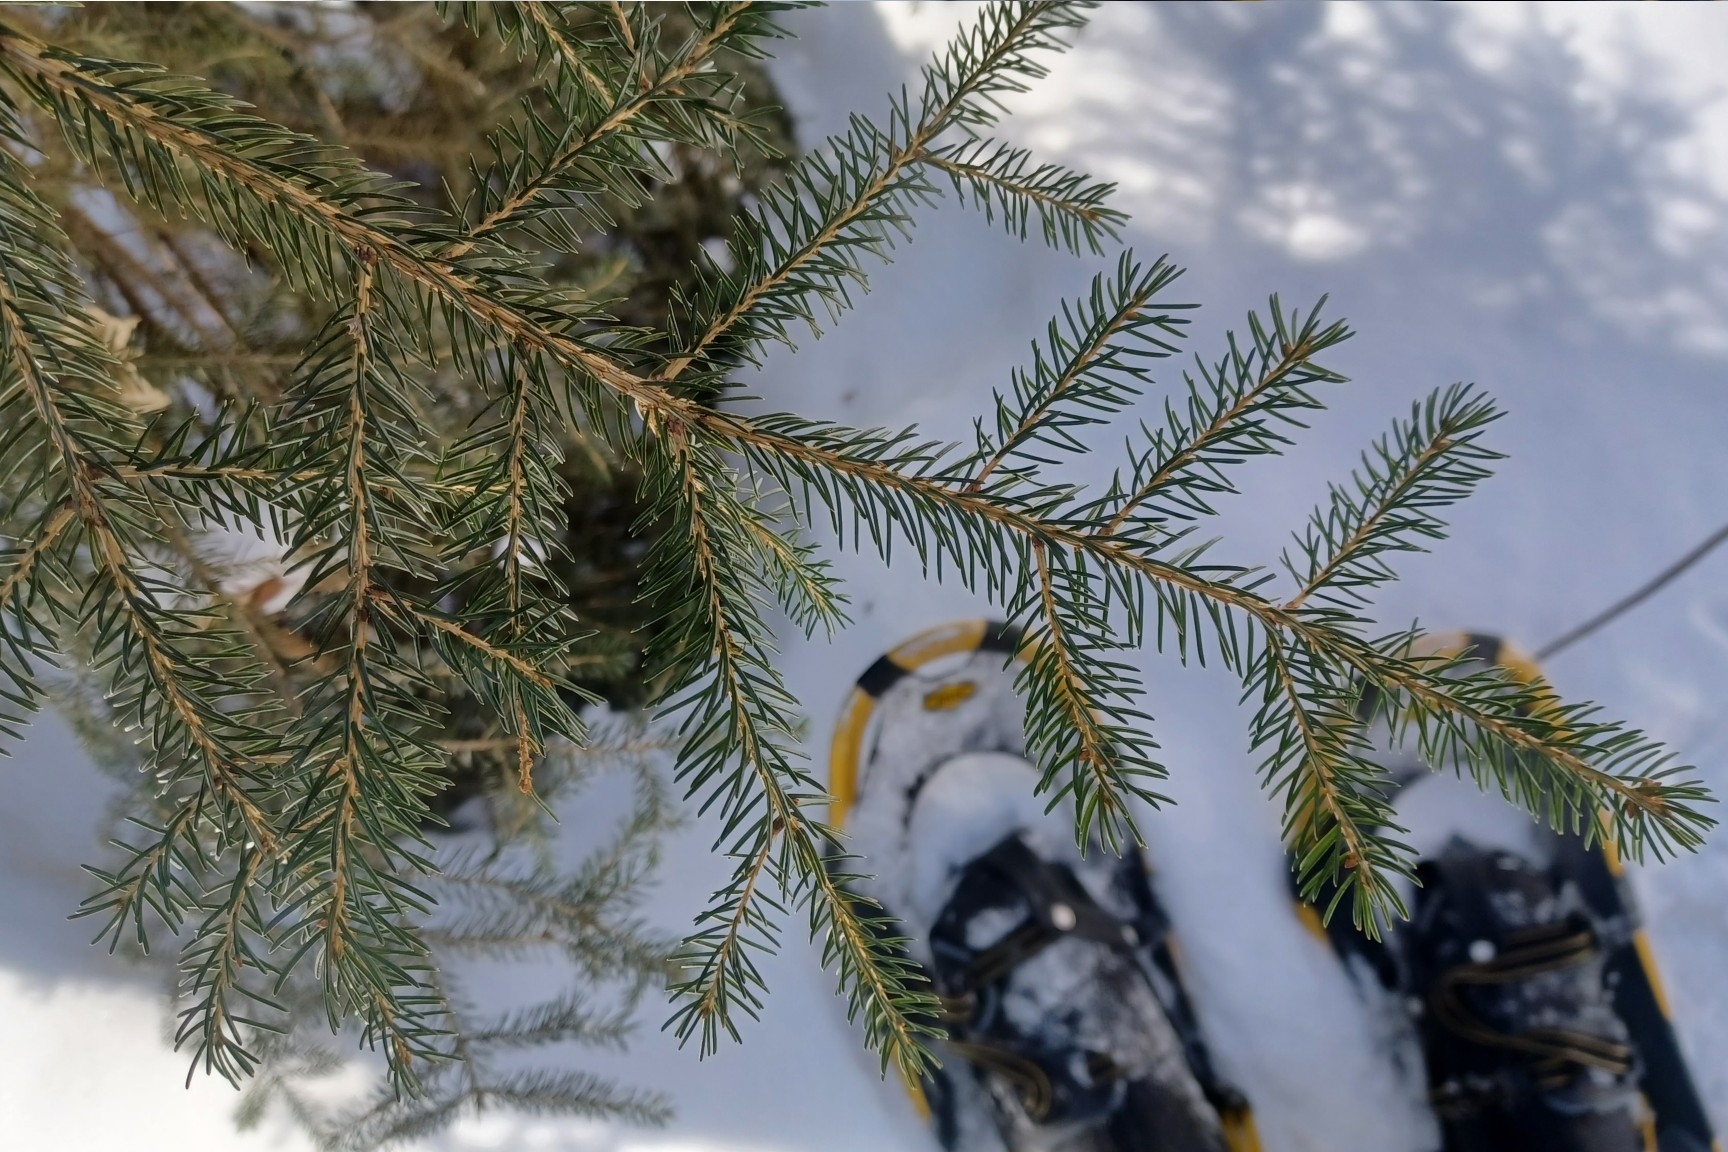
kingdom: Plantae
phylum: Tracheophyta
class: Pinopsida
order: Pinales
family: Pinaceae
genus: Picea
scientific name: Picea rubens
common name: Red spruce
